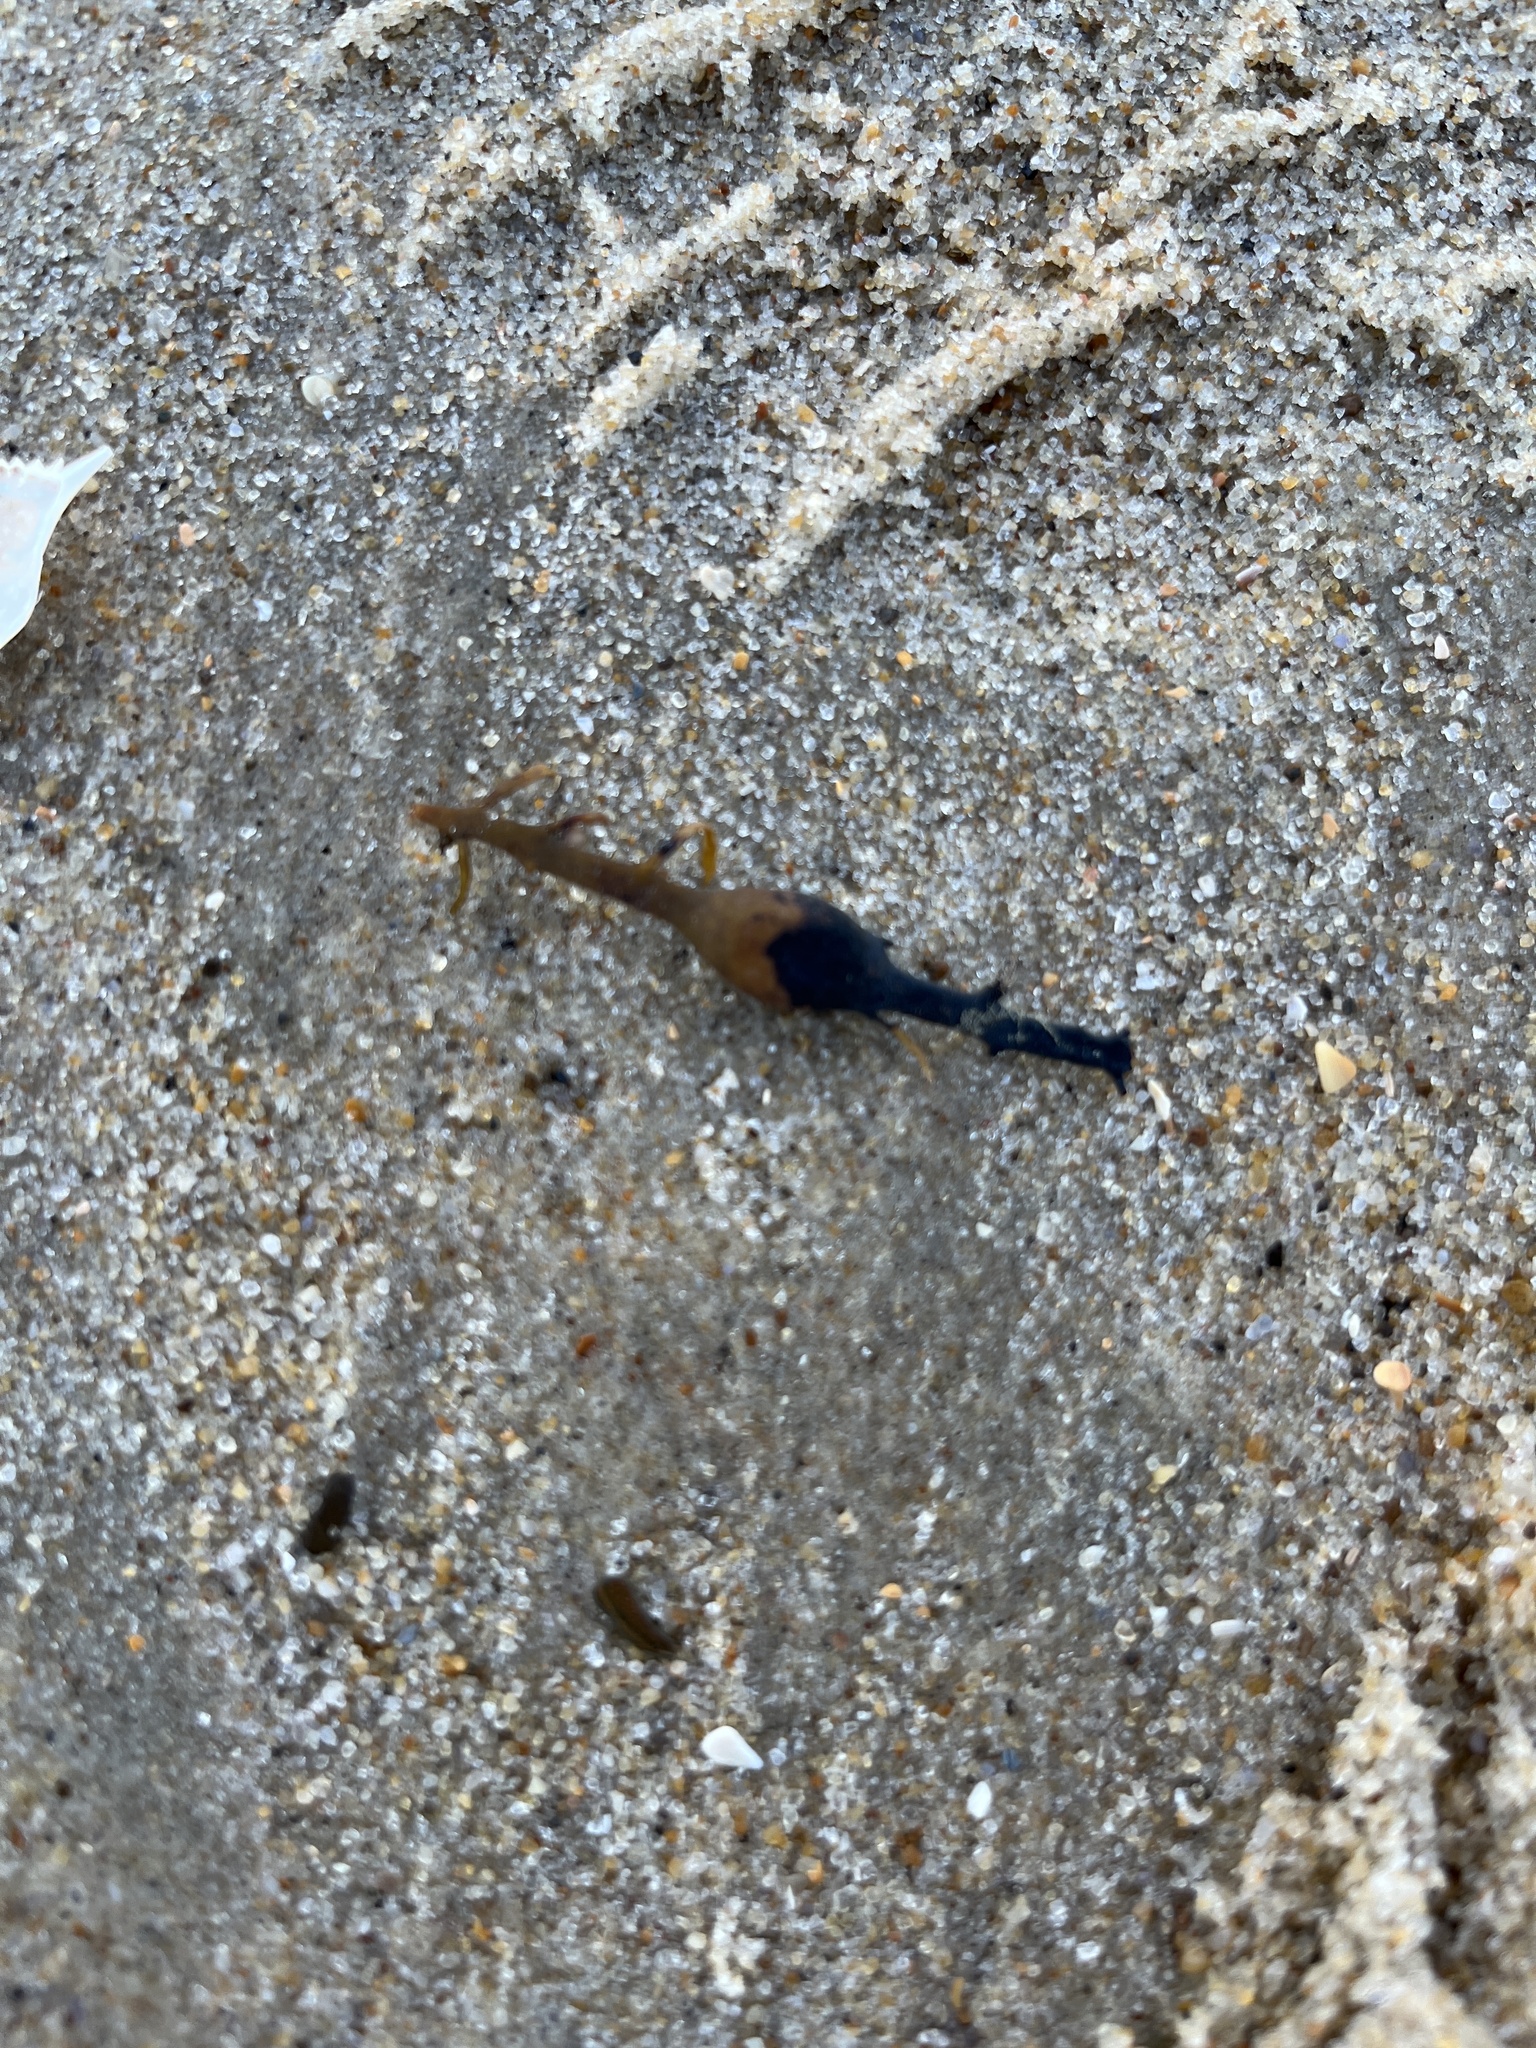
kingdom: Chromista
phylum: Ochrophyta
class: Phaeophyceae
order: Fucales
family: Fucaceae
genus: Ascophyllum
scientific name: Ascophyllum nodosum
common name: Knotted wrack
